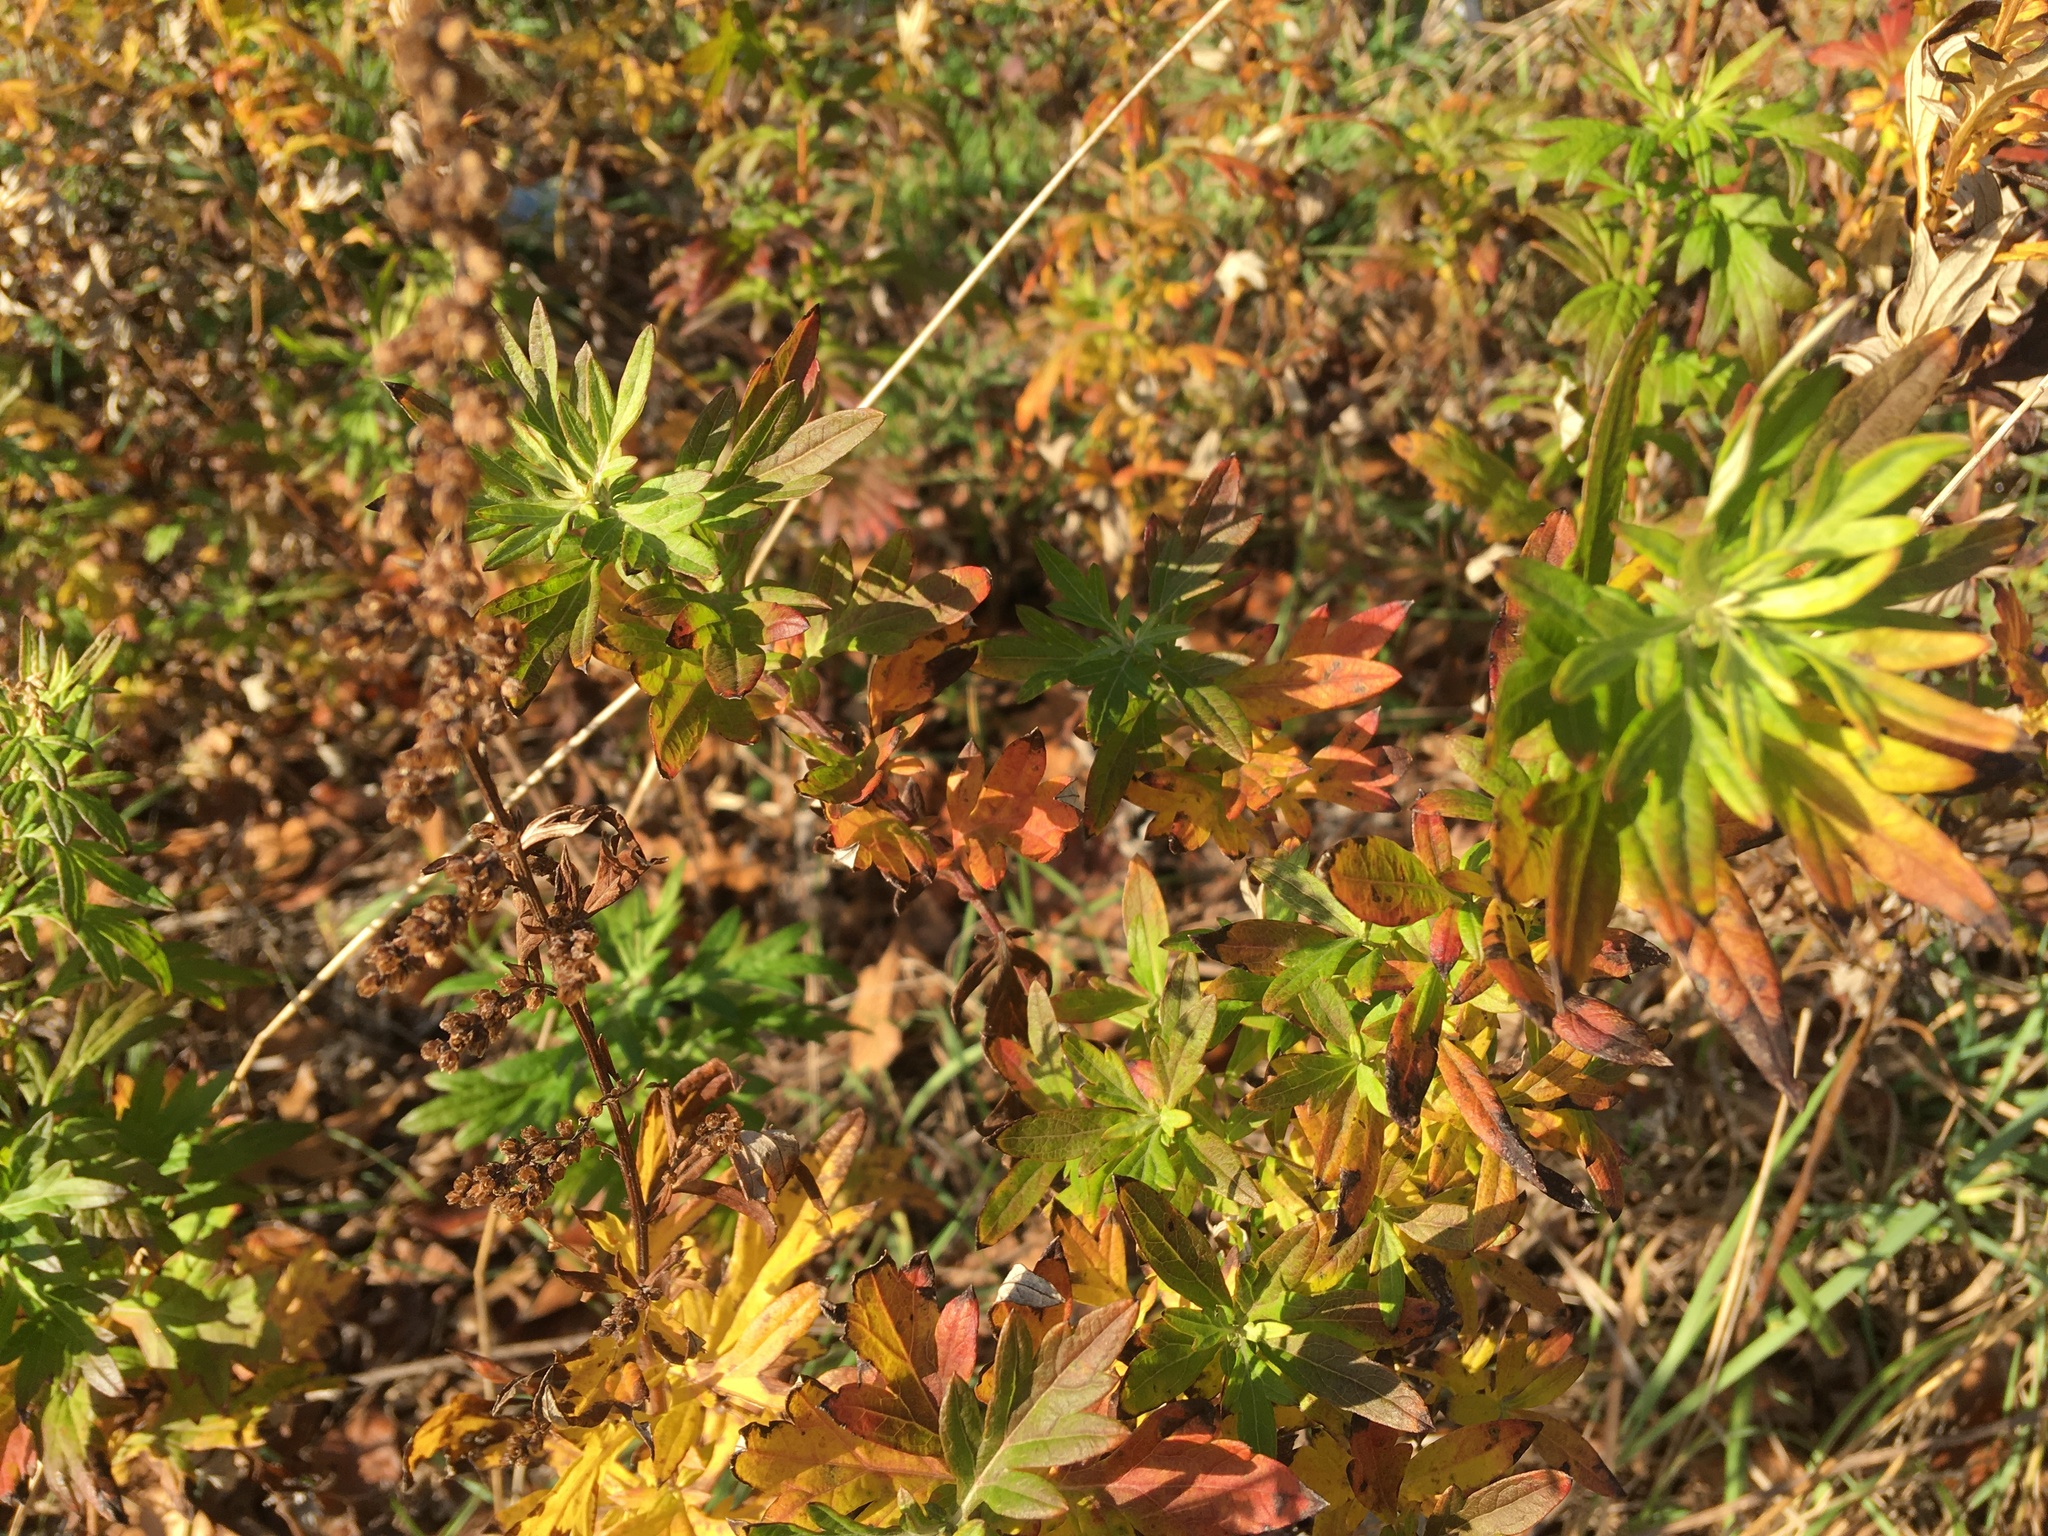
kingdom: Plantae
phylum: Tracheophyta
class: Magnoliopsida
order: Asterales
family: Asteraceae
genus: Artemisia
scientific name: Artemisia vulgaris
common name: Mugwort
